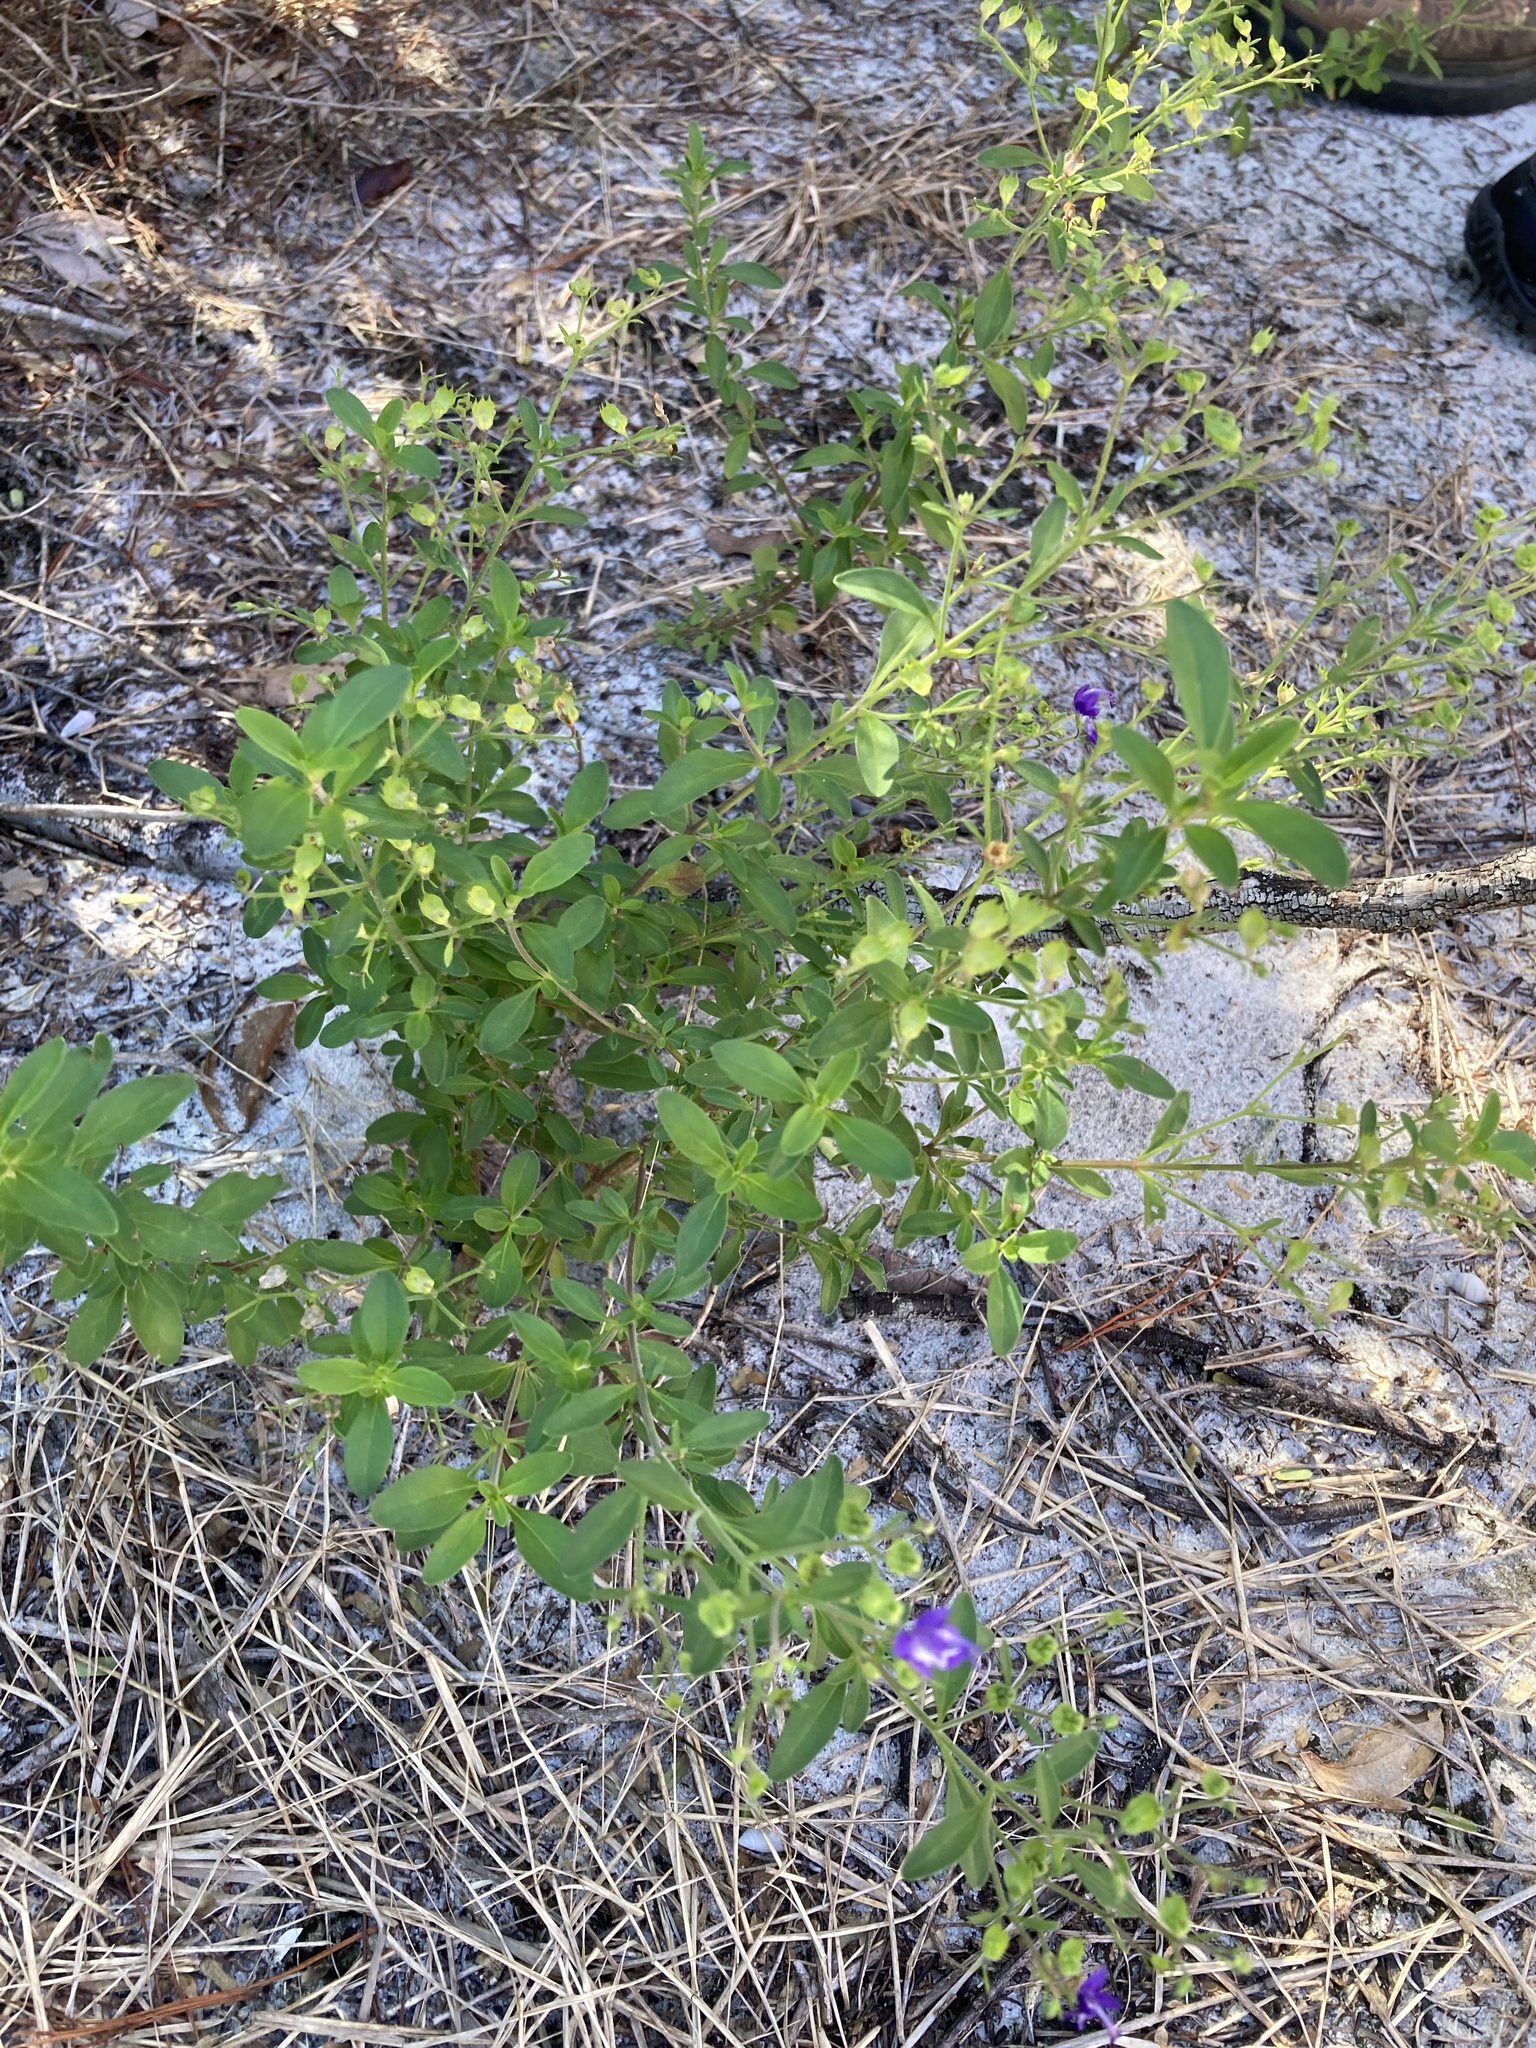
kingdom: Plantae
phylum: Tracheophyta
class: Magnoliopsida
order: Lamiales
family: Lamiaceae
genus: Trichostema
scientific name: Trichostema
